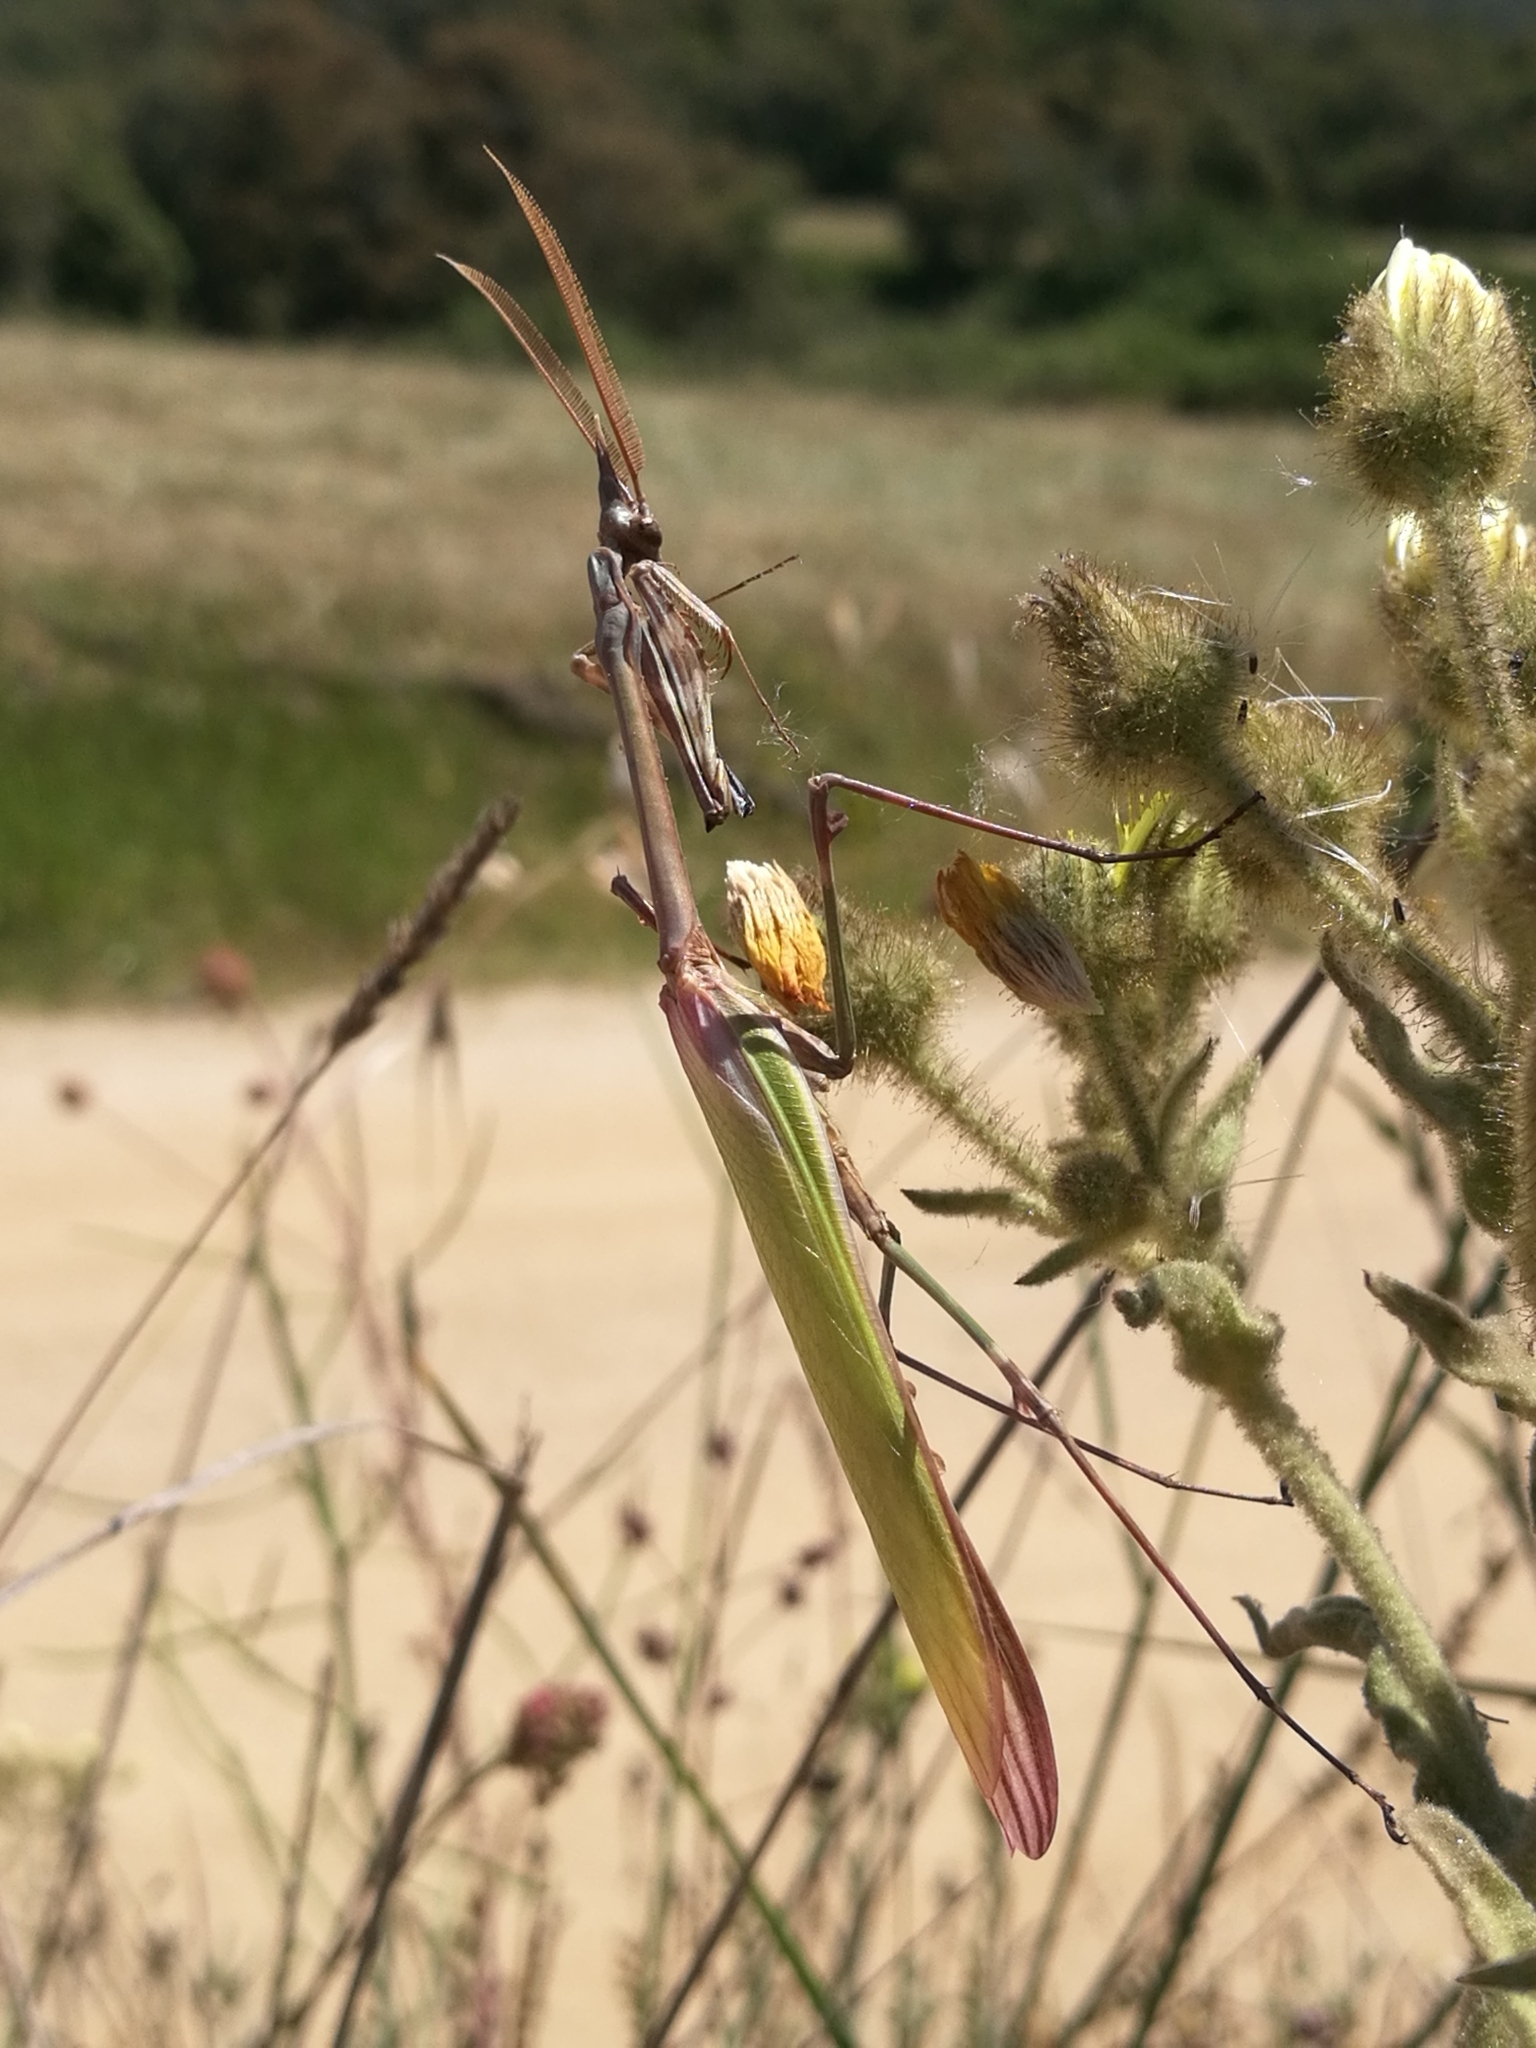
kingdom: Animalia
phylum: Arthropoda
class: Insecta
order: Mantodea
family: Empusidae
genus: Empusa
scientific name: Empusa pennata
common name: Conehead mantis
